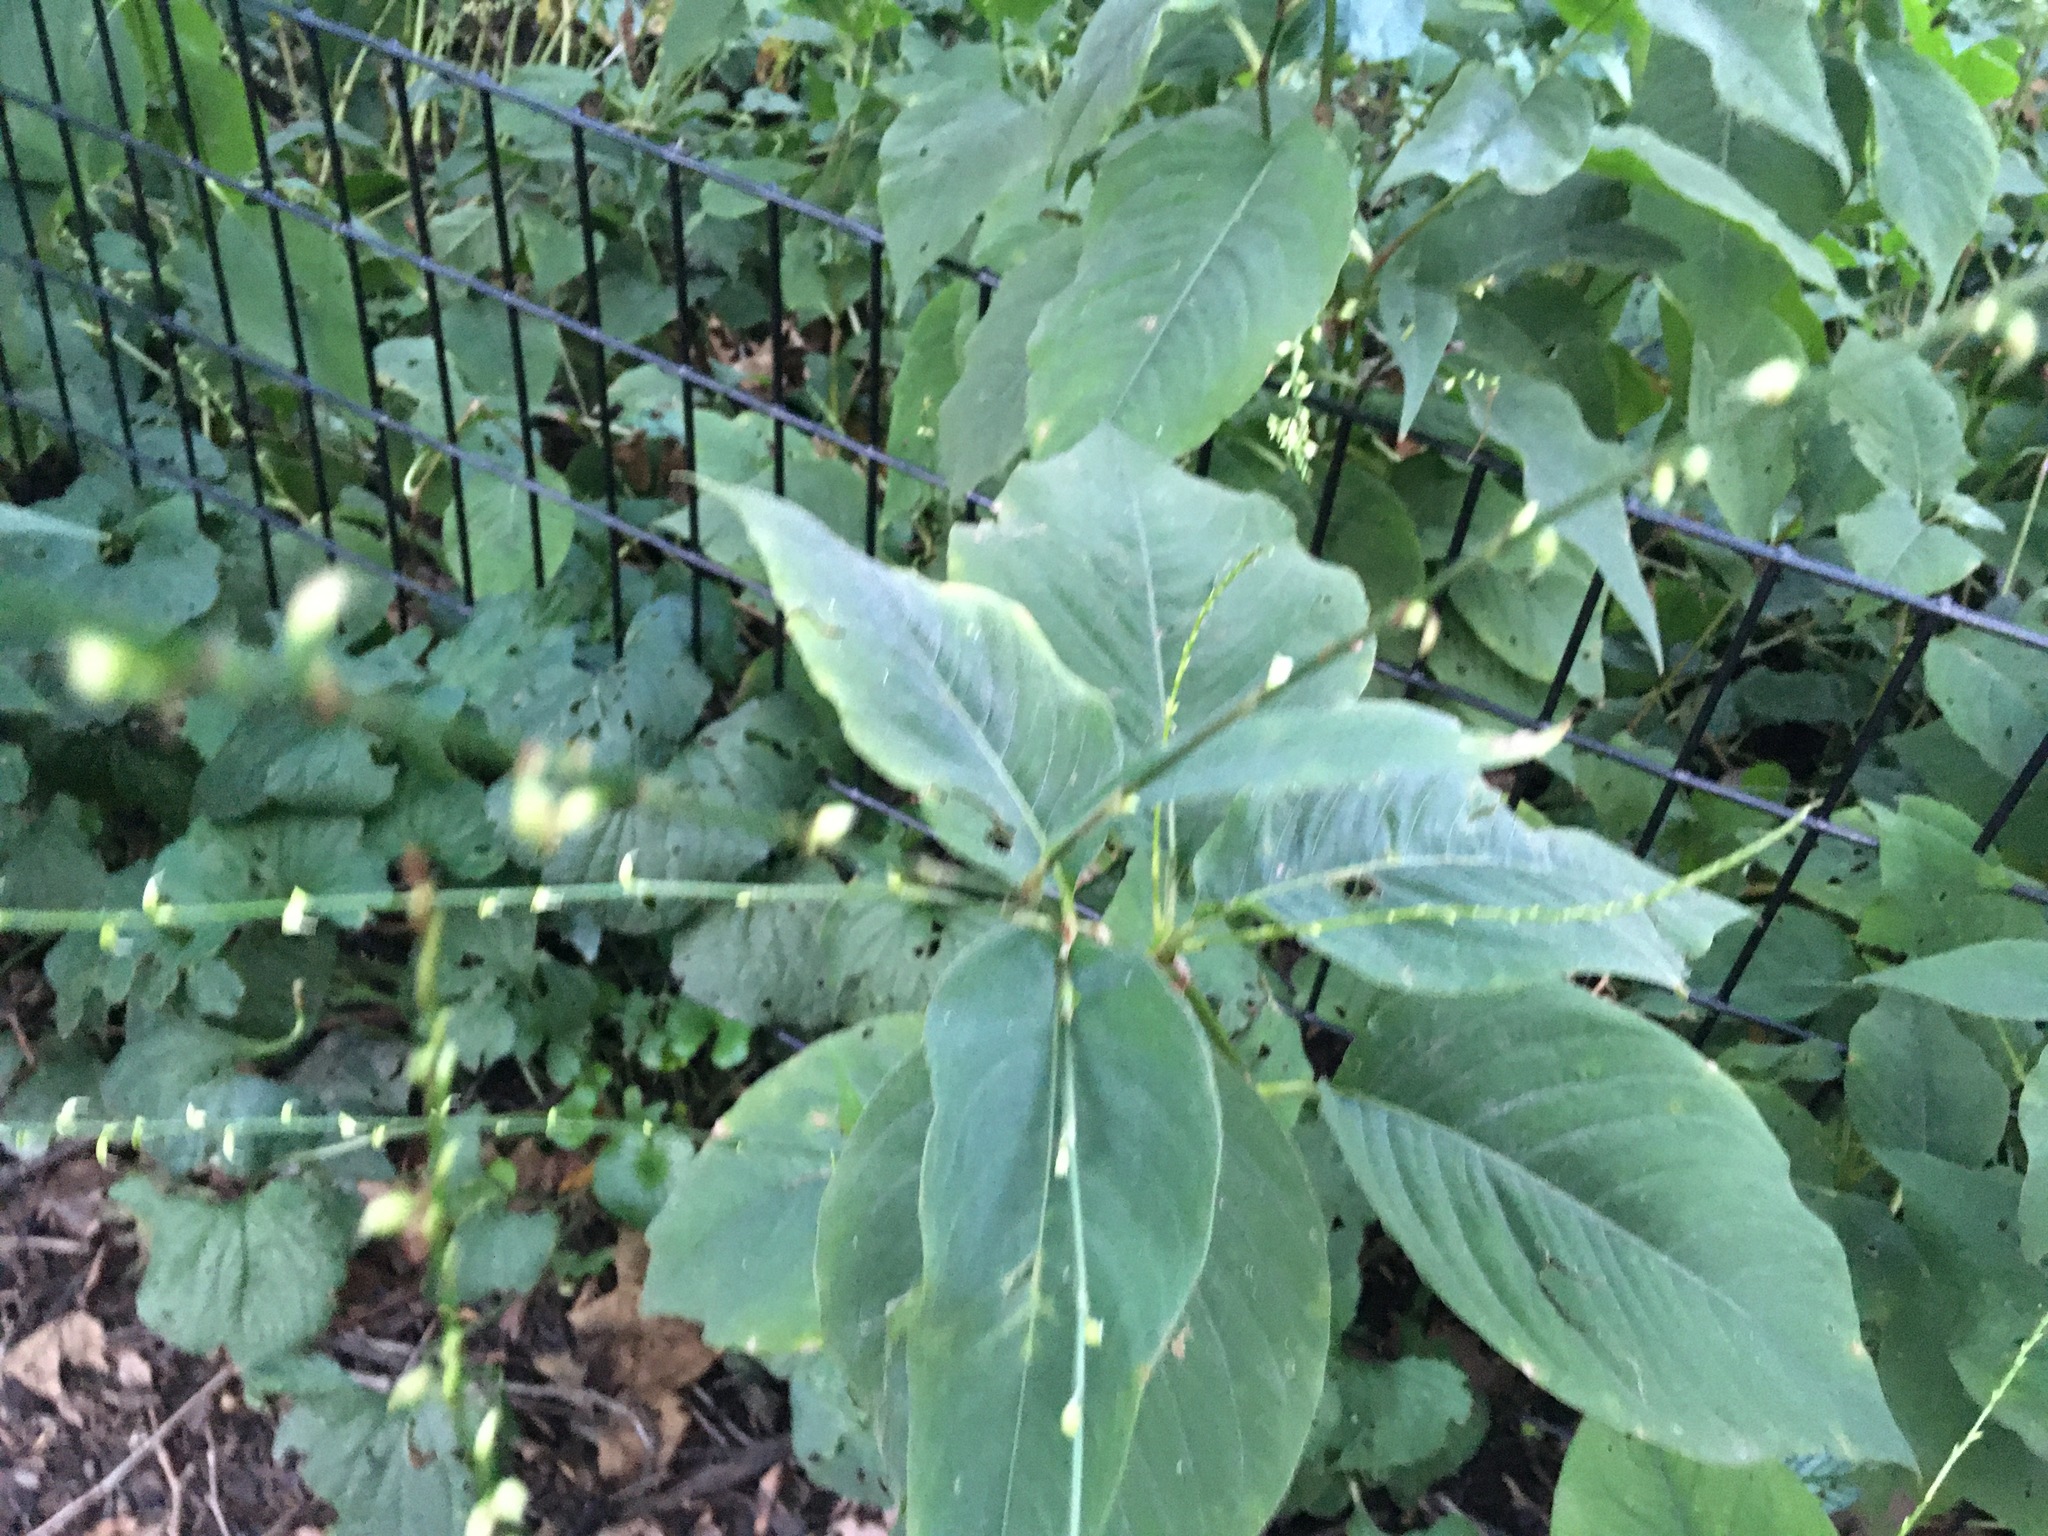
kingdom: Plantae
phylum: Tracheophyta
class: Magnoliopsida
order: Caryophyllales
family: Polygonaceae
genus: Persicaria
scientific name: Persicaria virginiana
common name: Jumpseed
